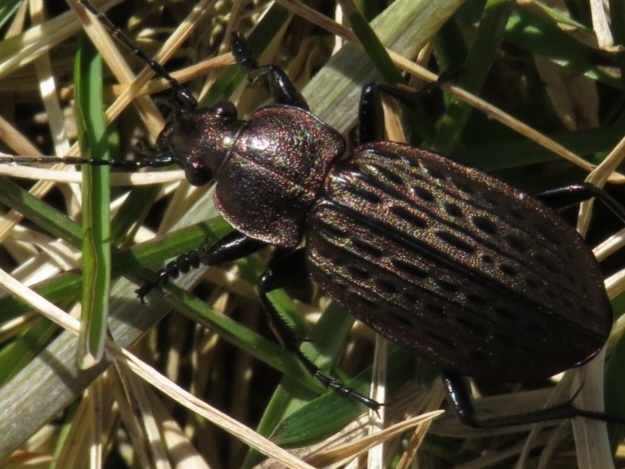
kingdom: Animalia
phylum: Arthropoda
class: Insecta
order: Coleoptera
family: Carabidae
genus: Carabus
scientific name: Carabus maeander
